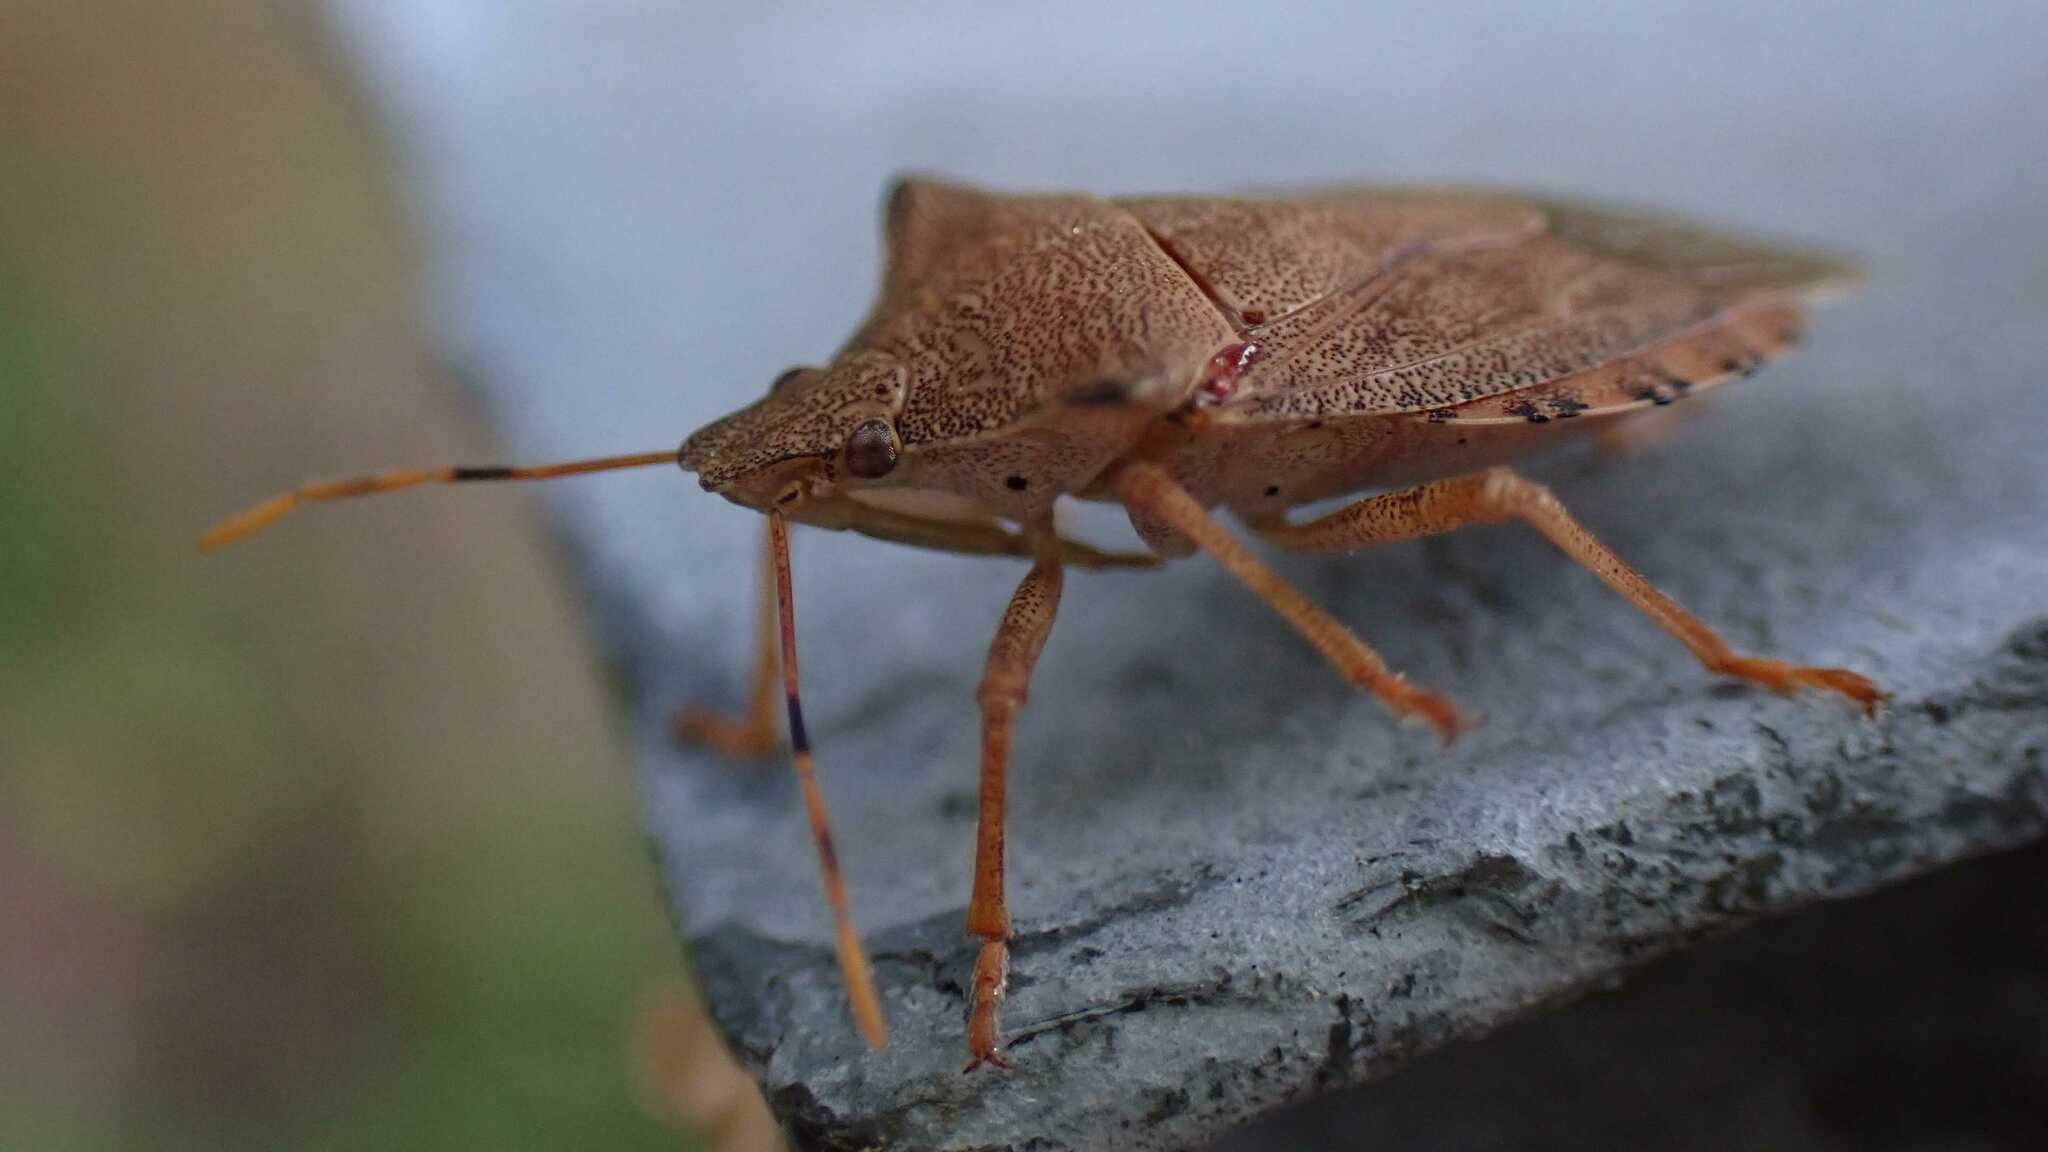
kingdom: Animalia
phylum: Arthropoda
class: Insecta
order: Hemiptera
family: Pentatomidae
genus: Arma
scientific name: Arma custos
